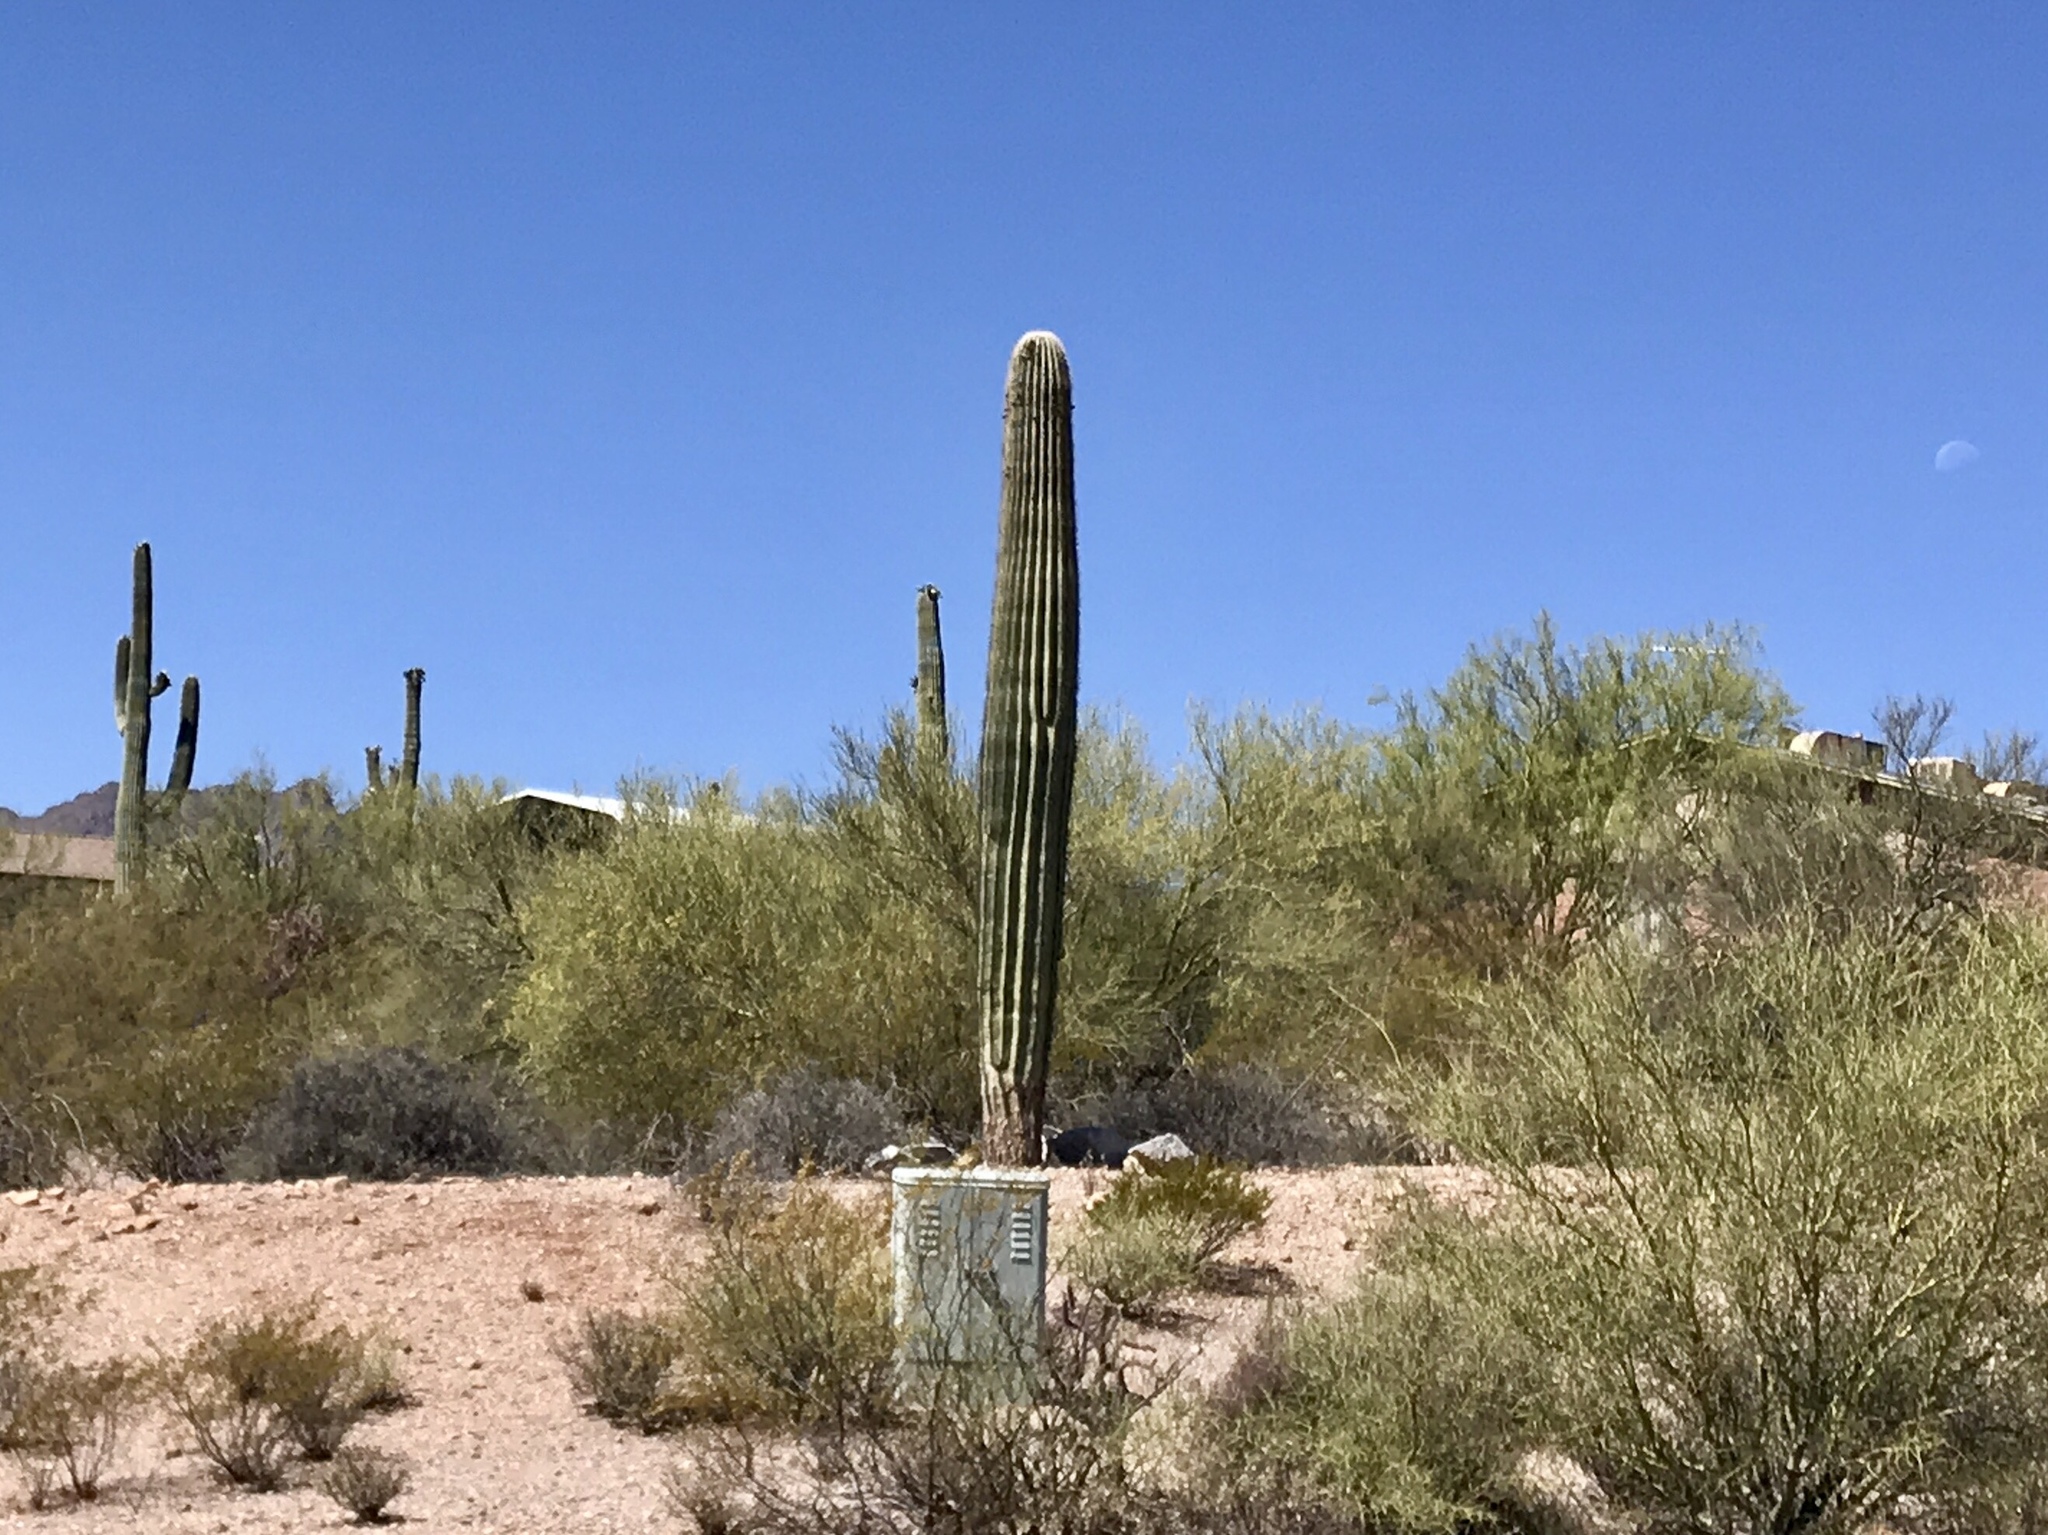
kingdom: Plantae
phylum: Tracheophyta
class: Magnoliopsida
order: Caryophyllales
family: Cactaceae
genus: Carnegiea
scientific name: Carnegiea gigantea
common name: Saguaro
